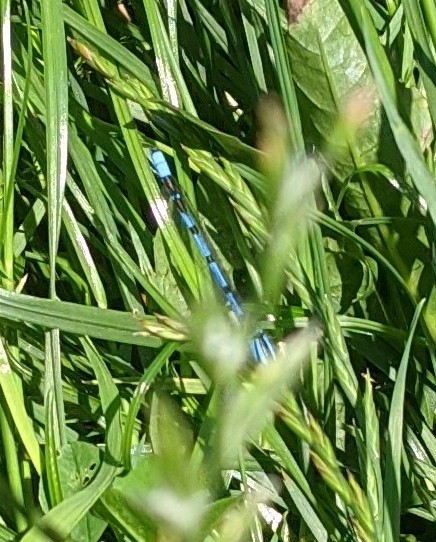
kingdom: Animalia
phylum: Arthropoda
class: Insecta
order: Odonata
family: Coenagrionidae
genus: Enallagma
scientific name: Enallagma cyathigerum
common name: Common blue damselfly
